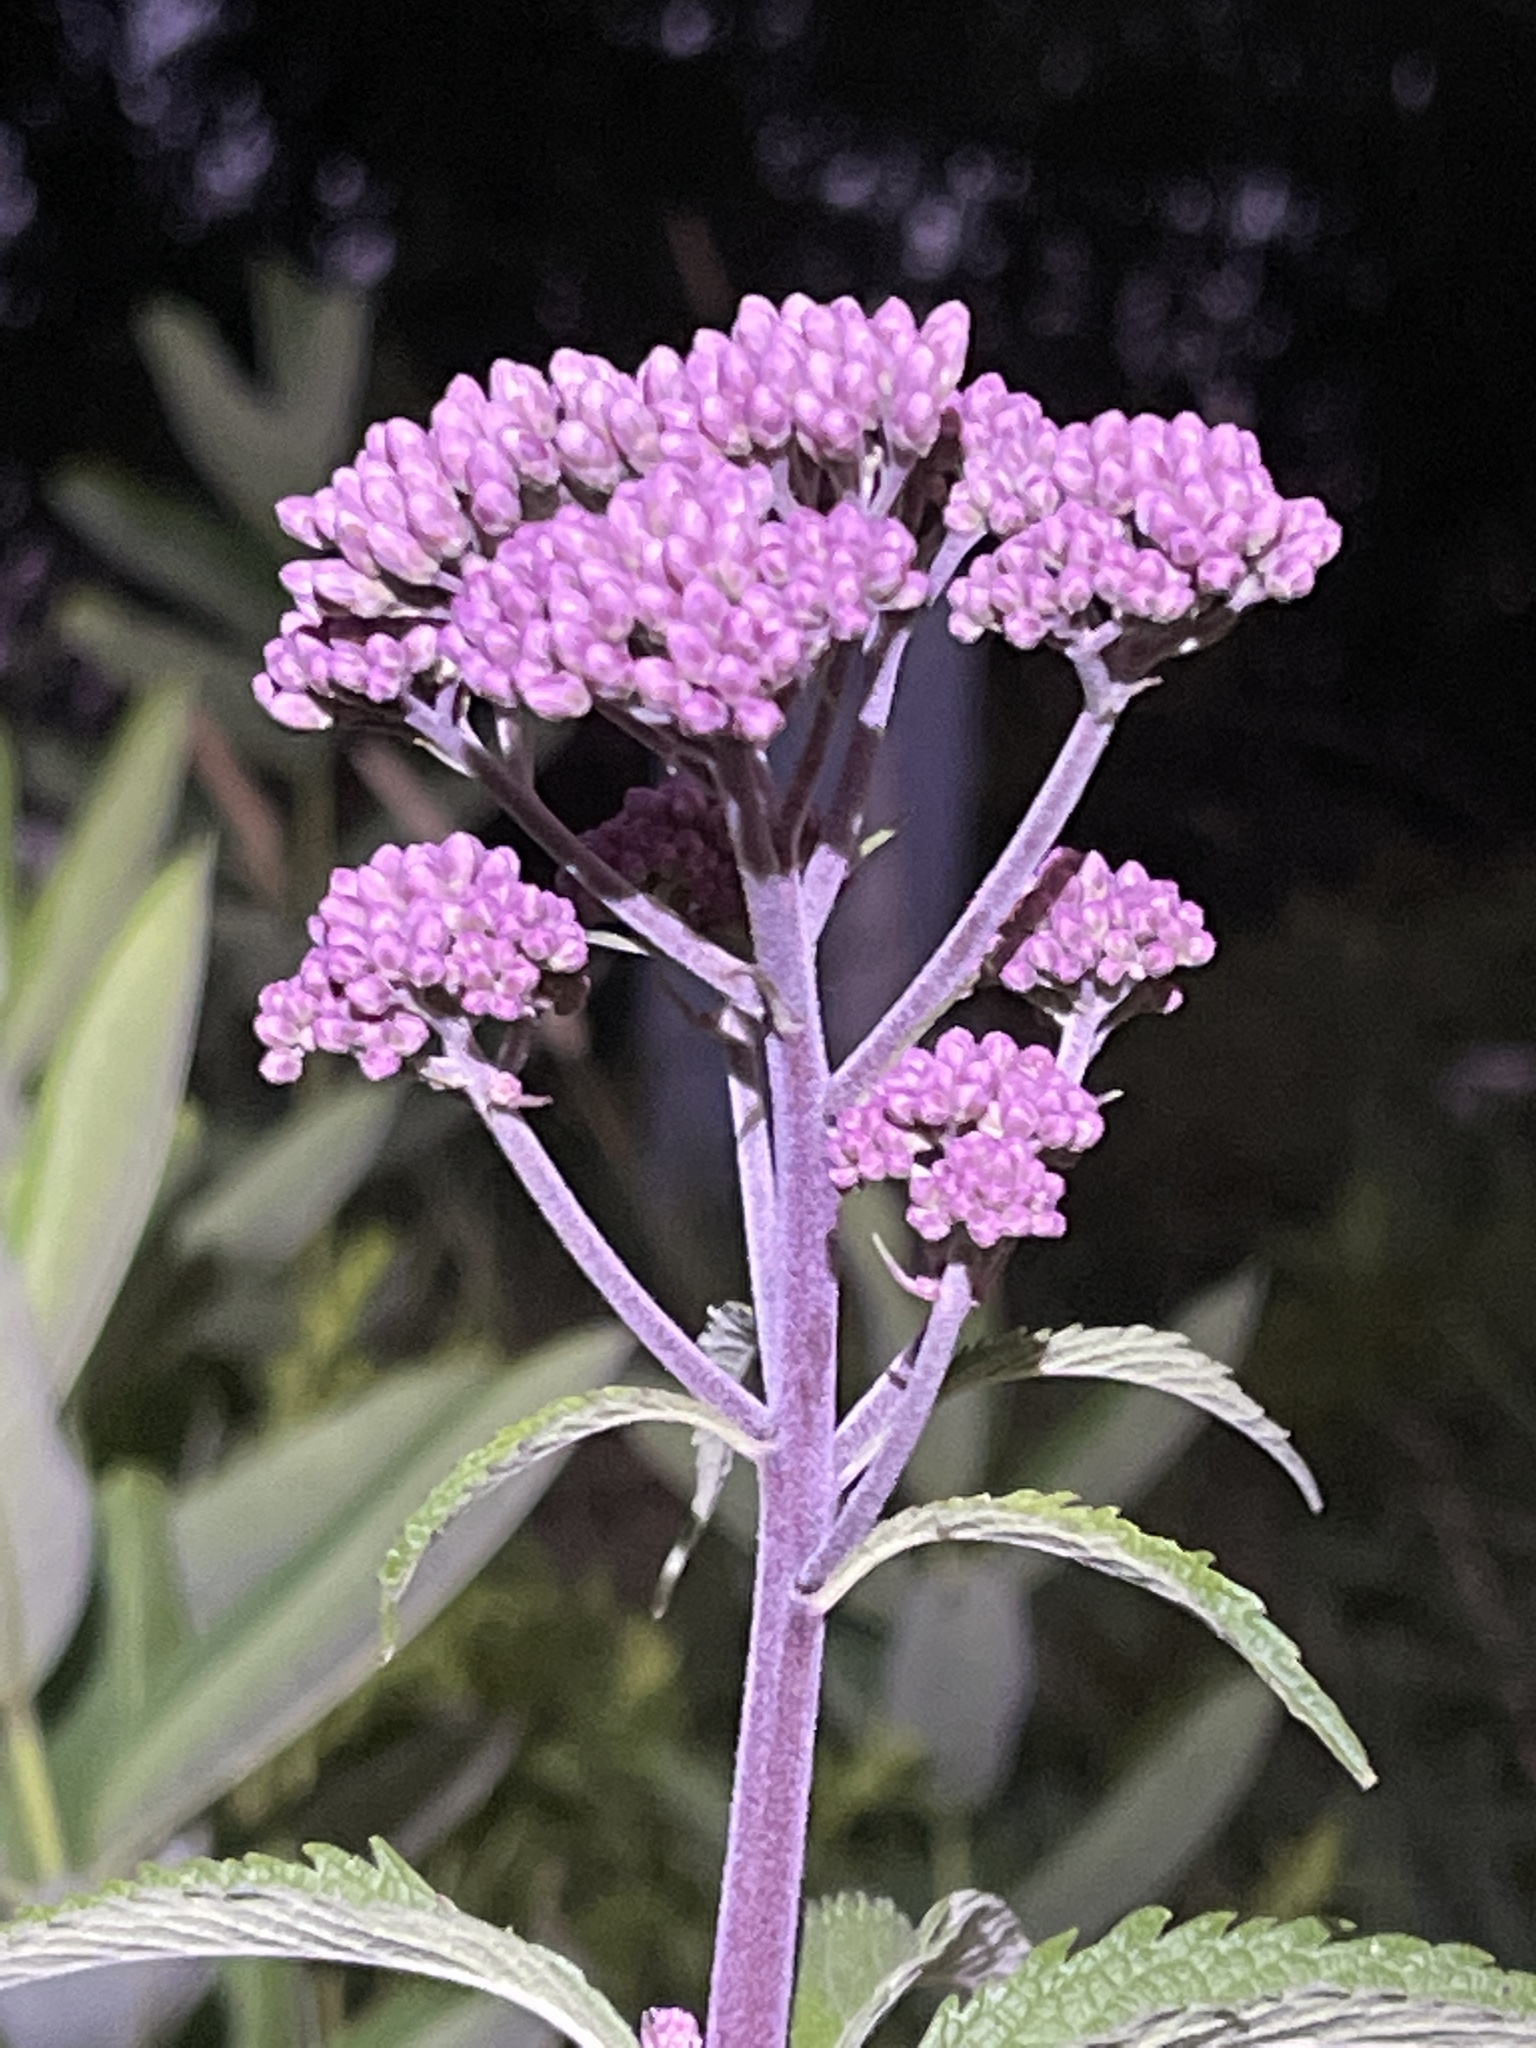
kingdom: Plantae
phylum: Tracheophyta
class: Magnoliopsida
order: Asterales
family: Asteraceae
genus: Eutrochium
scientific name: Eutrochium maculatum
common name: Spotted joe pye weed
